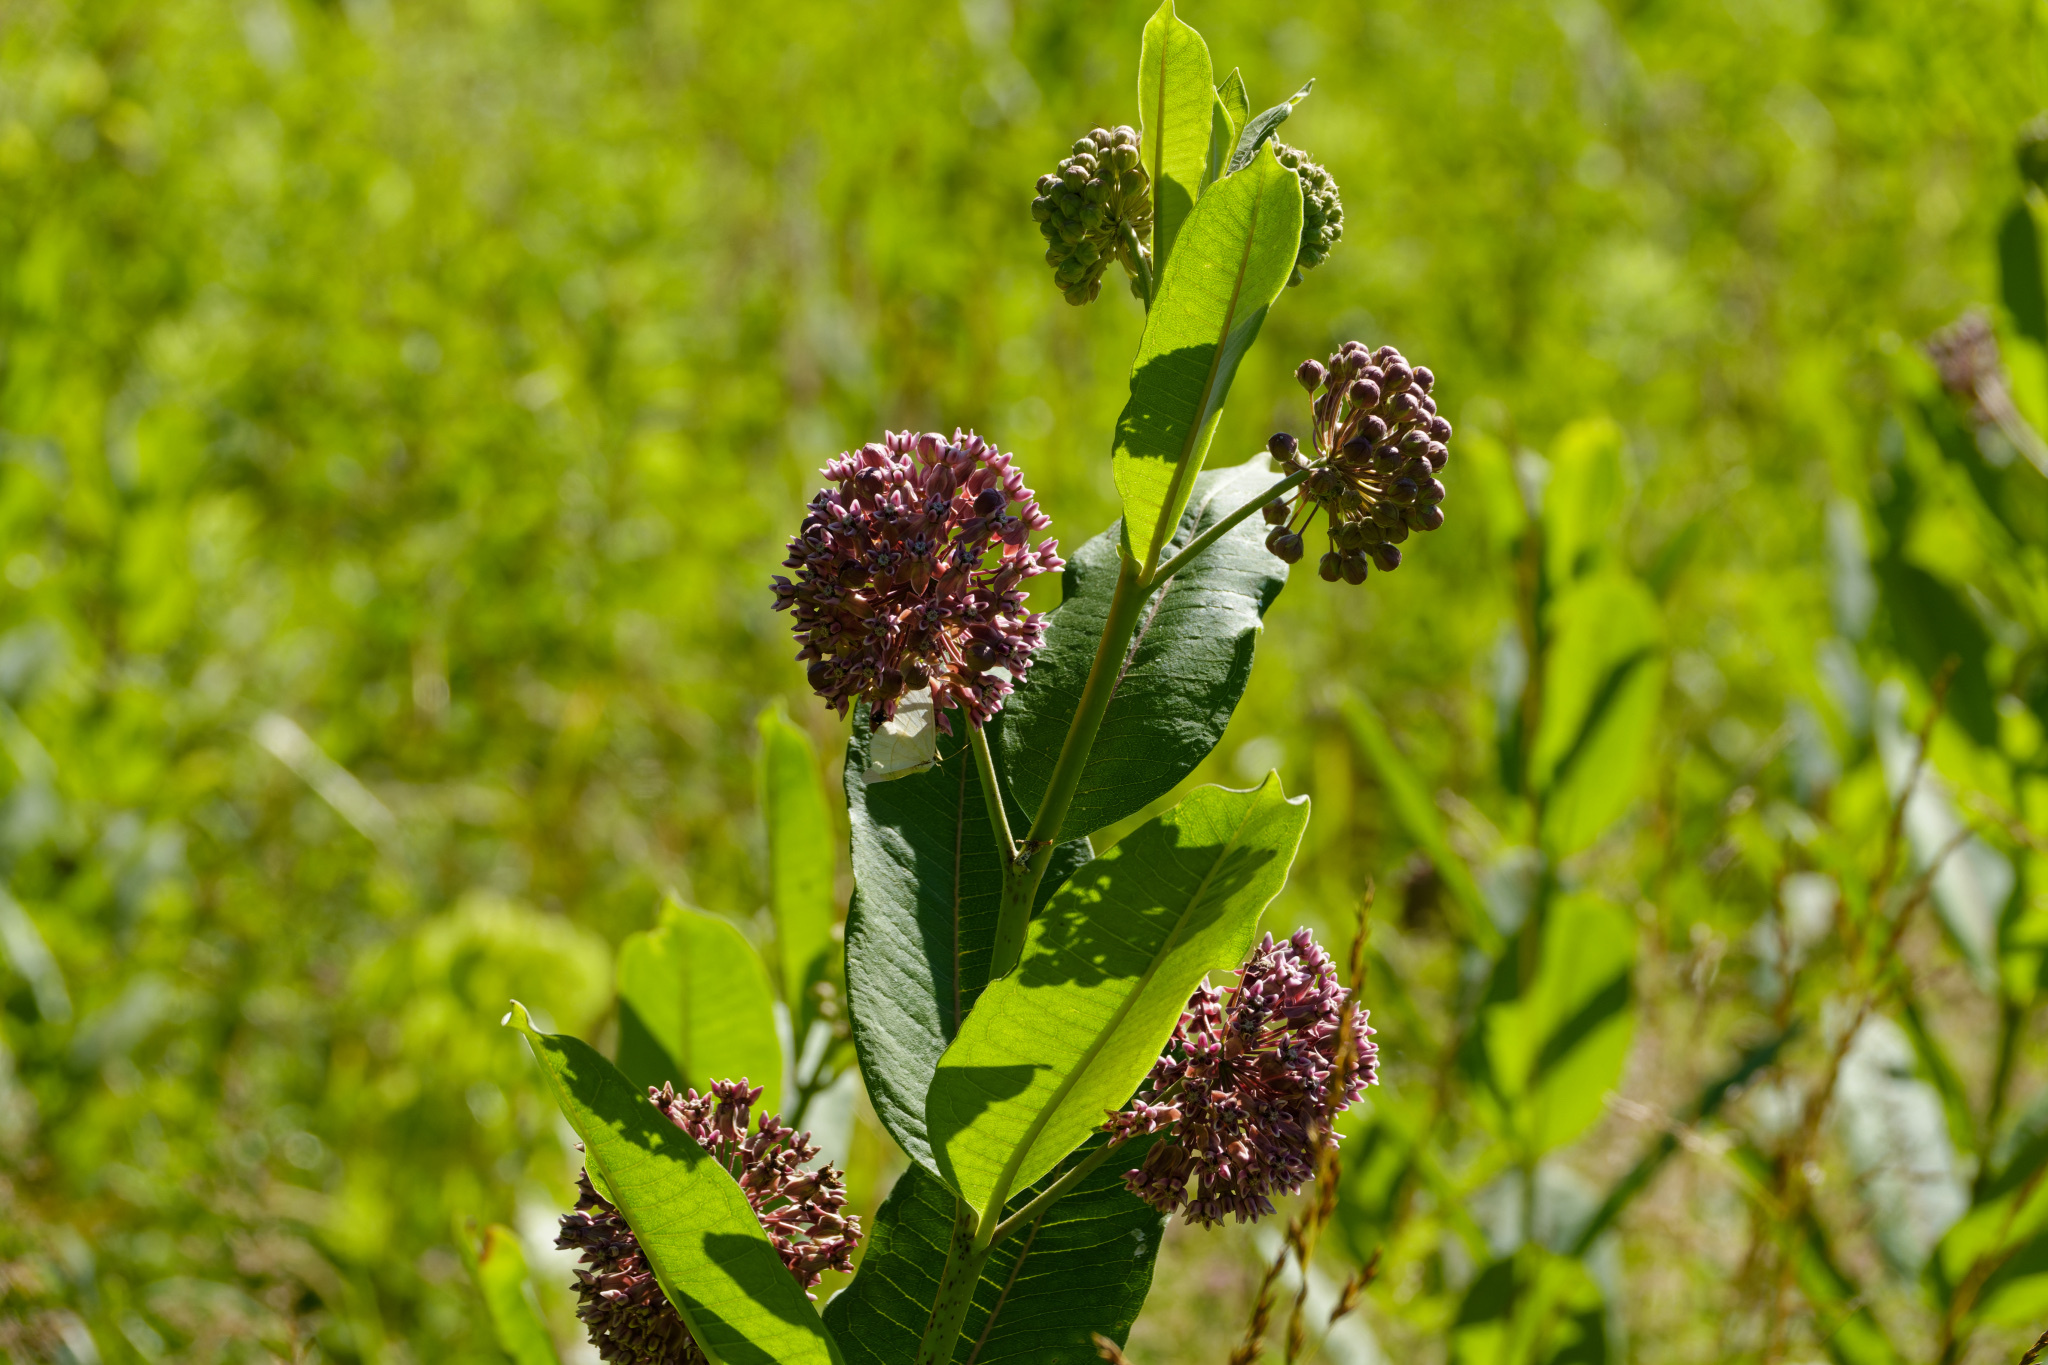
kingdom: Plantae
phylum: Tracheophyta
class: Magnoliopsida
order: Gentianales
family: Apocynaceae
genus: Asclepias
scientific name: Asclepias syriaca
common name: Common milkweed
